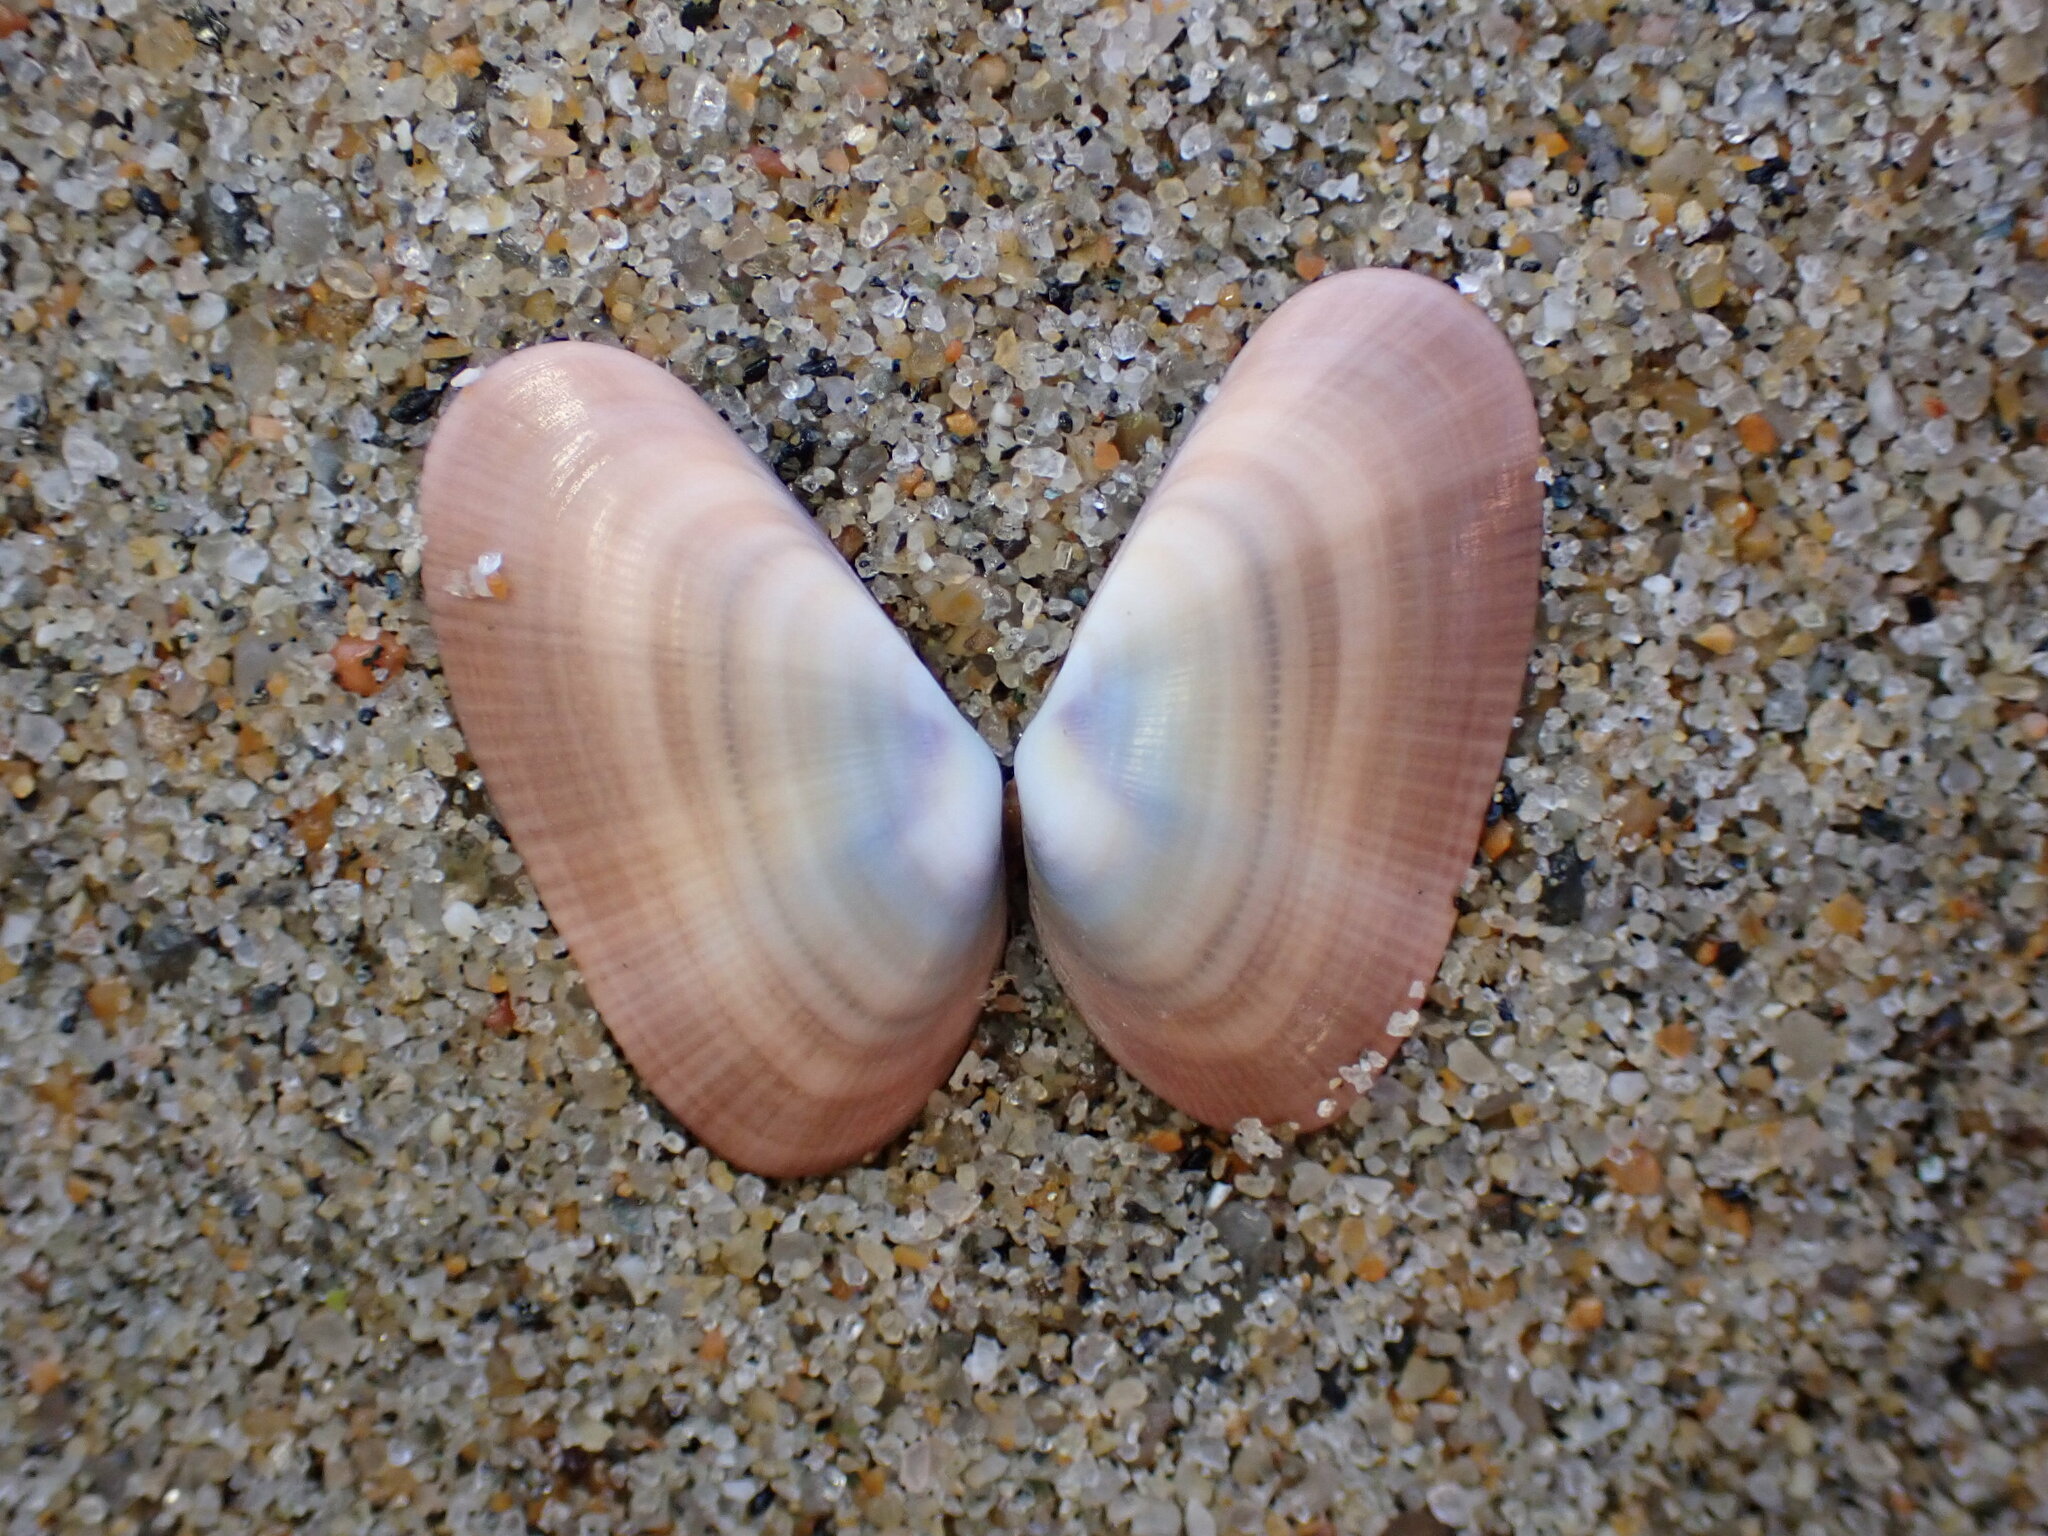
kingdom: Animalia
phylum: Mollusca
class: Bivalvia
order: Cardiida
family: Donacidae
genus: Donax
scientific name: Donax gouldii
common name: Gould beanclam
